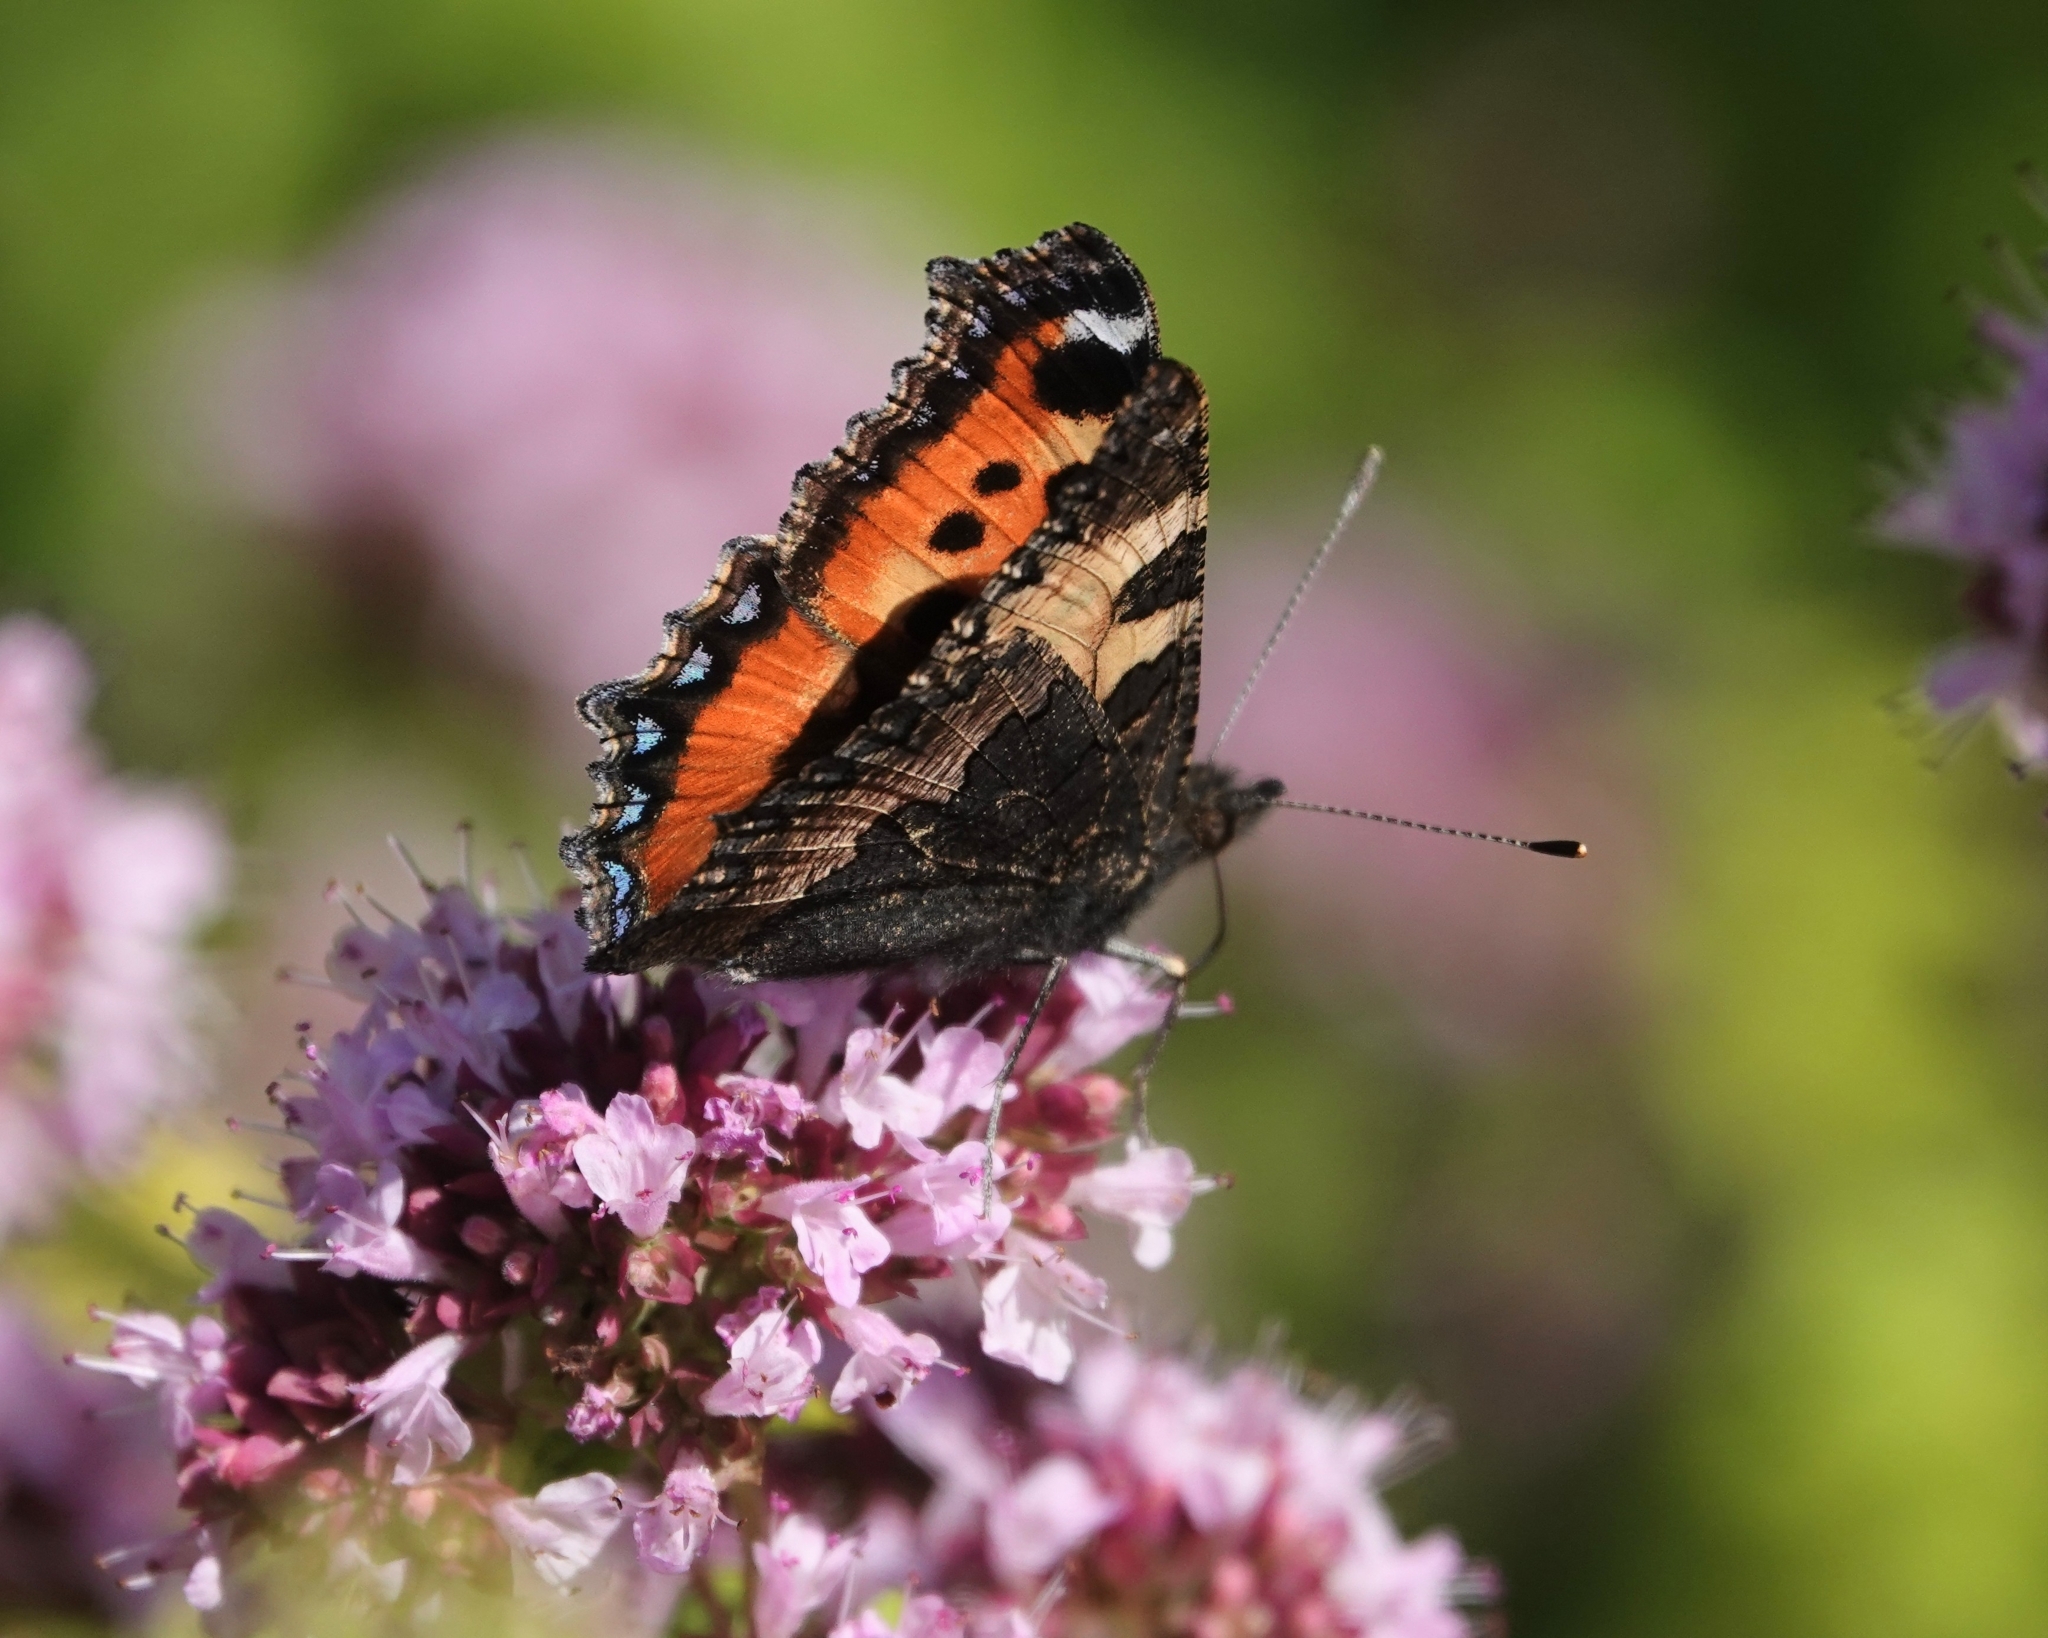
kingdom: Animalia
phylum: Arthropoda
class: Insecta
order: Lepidoptera
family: Nymphalidae
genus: Aglais
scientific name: Aglais urticae
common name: Small tortoiseshell
